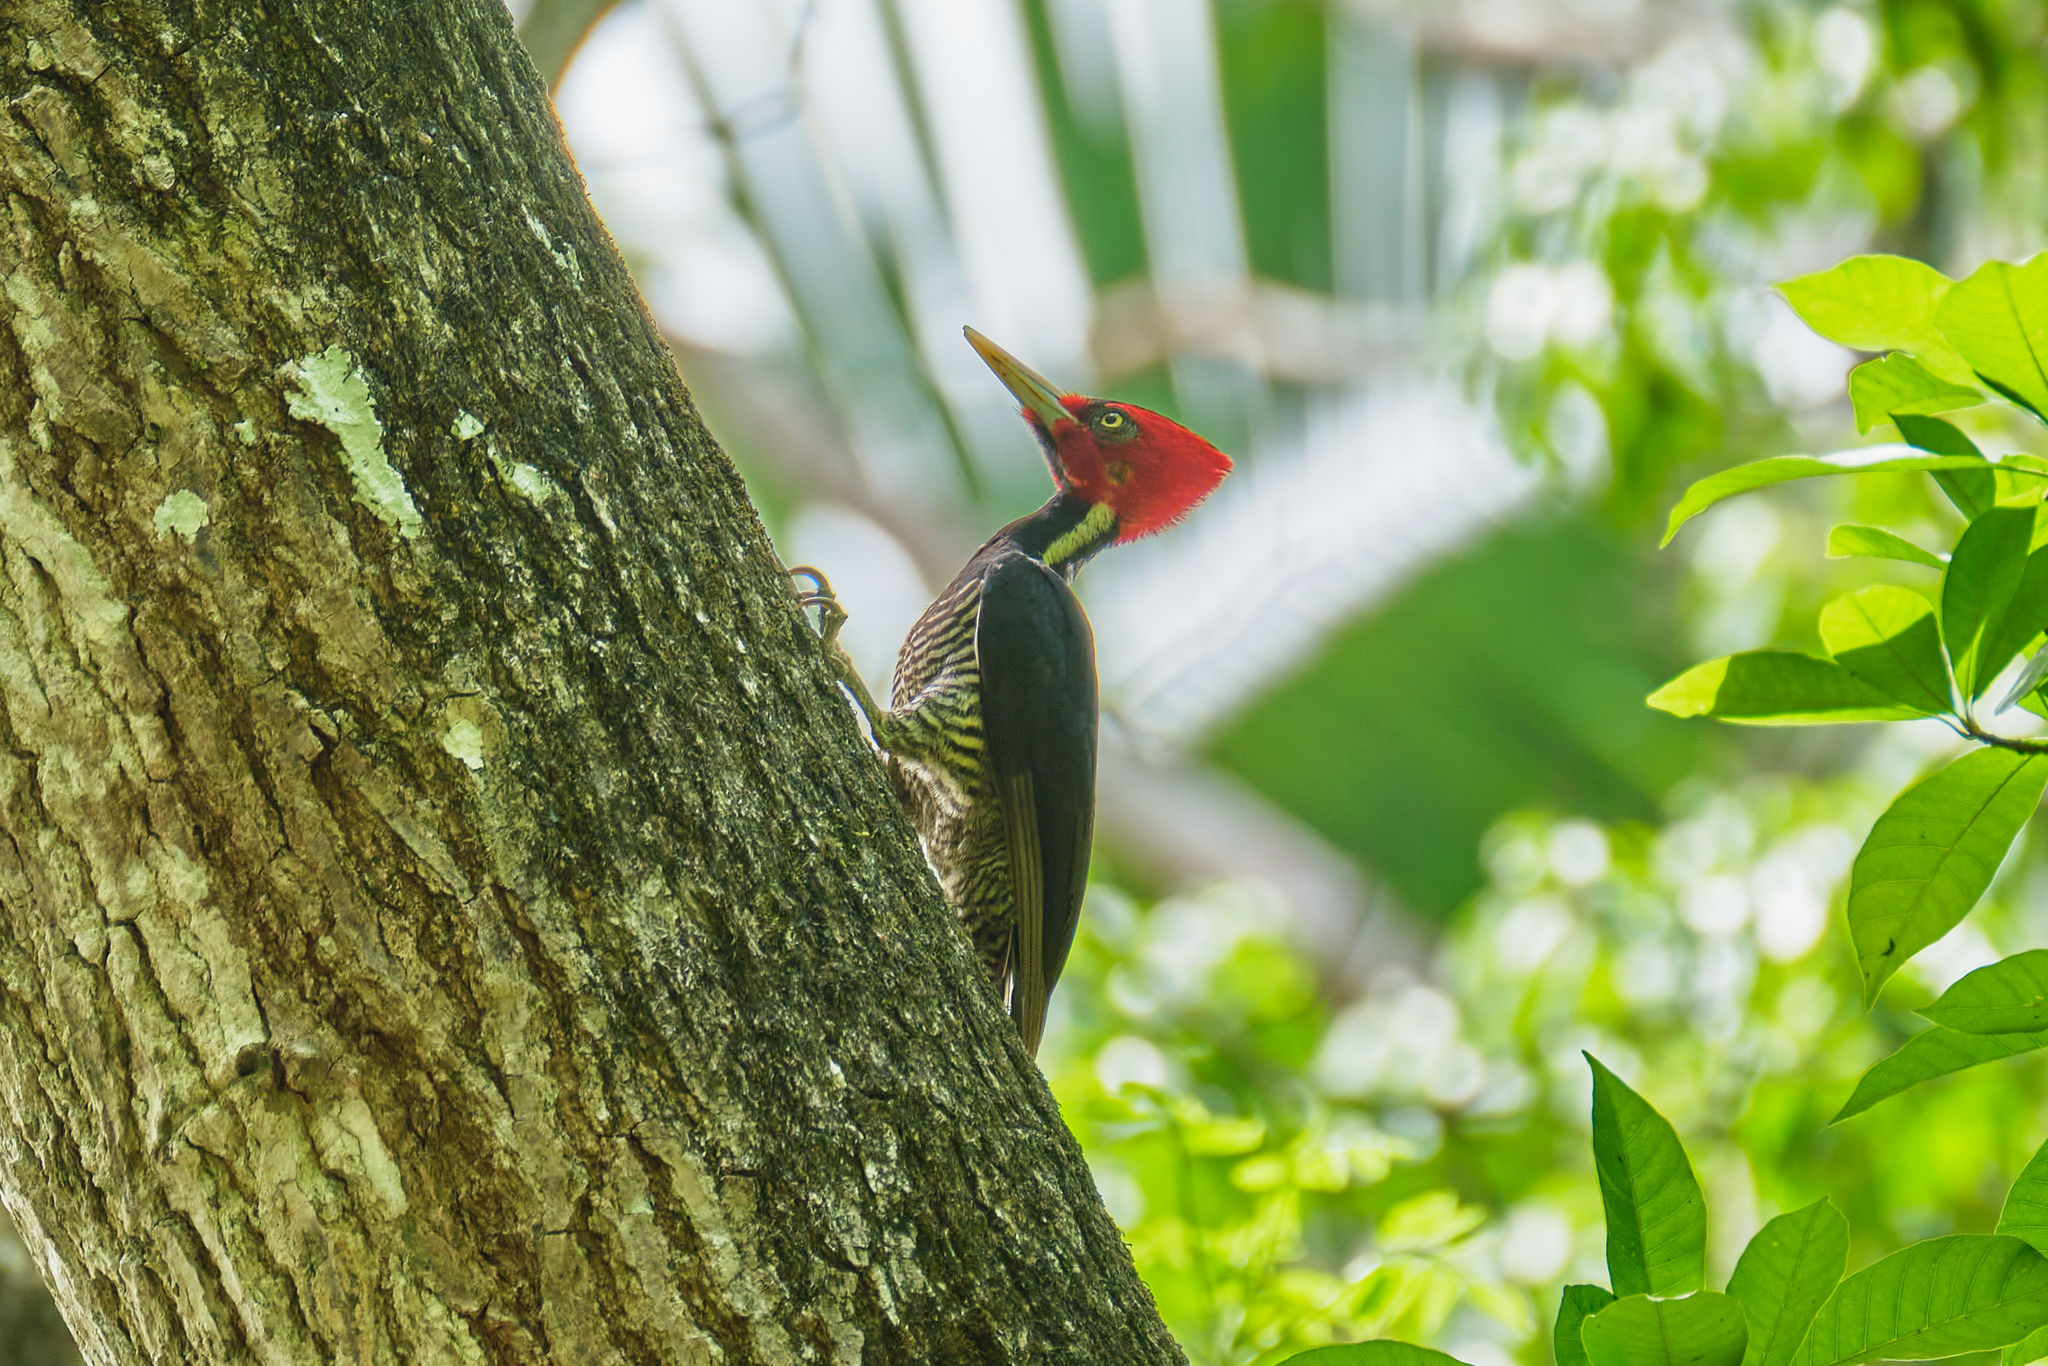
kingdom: Animalia
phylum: Chordata
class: Aves
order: Piciformes
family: Picidae
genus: Campephilus
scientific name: Campephilus guatemalensis
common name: Pale-billed woodpecker
